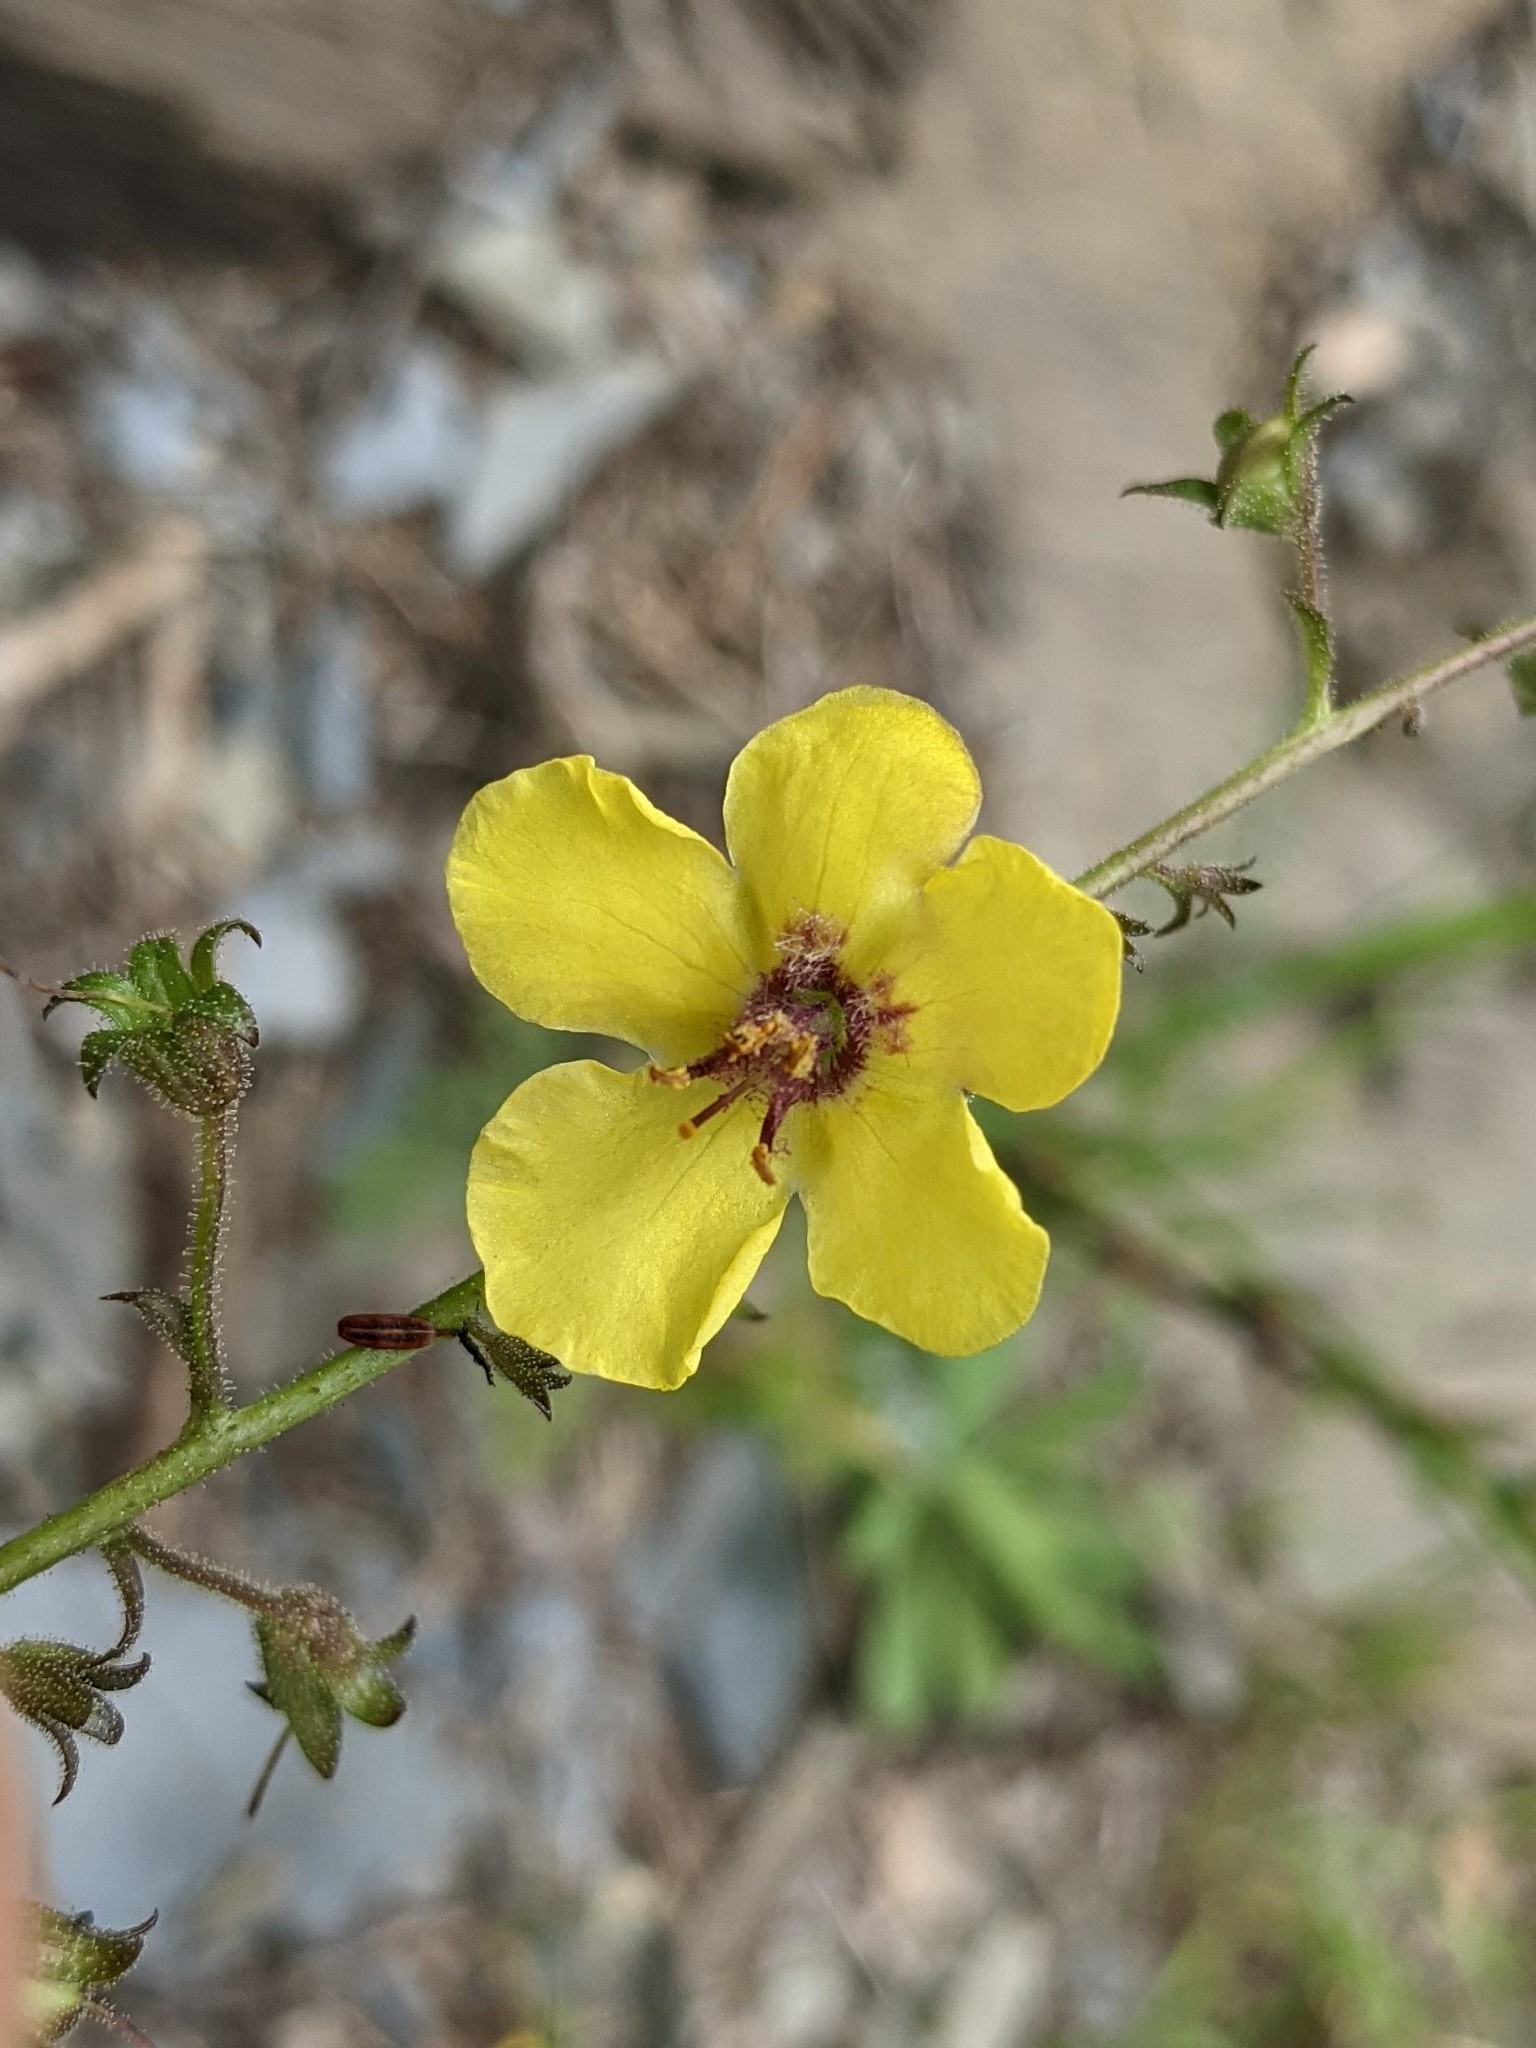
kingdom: Plantae
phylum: Tracheophyta
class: Magnoliopsida
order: Lamiales
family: Scrophulariaceae
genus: Verbascum
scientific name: Verbascum blattaria
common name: Moth mullein
